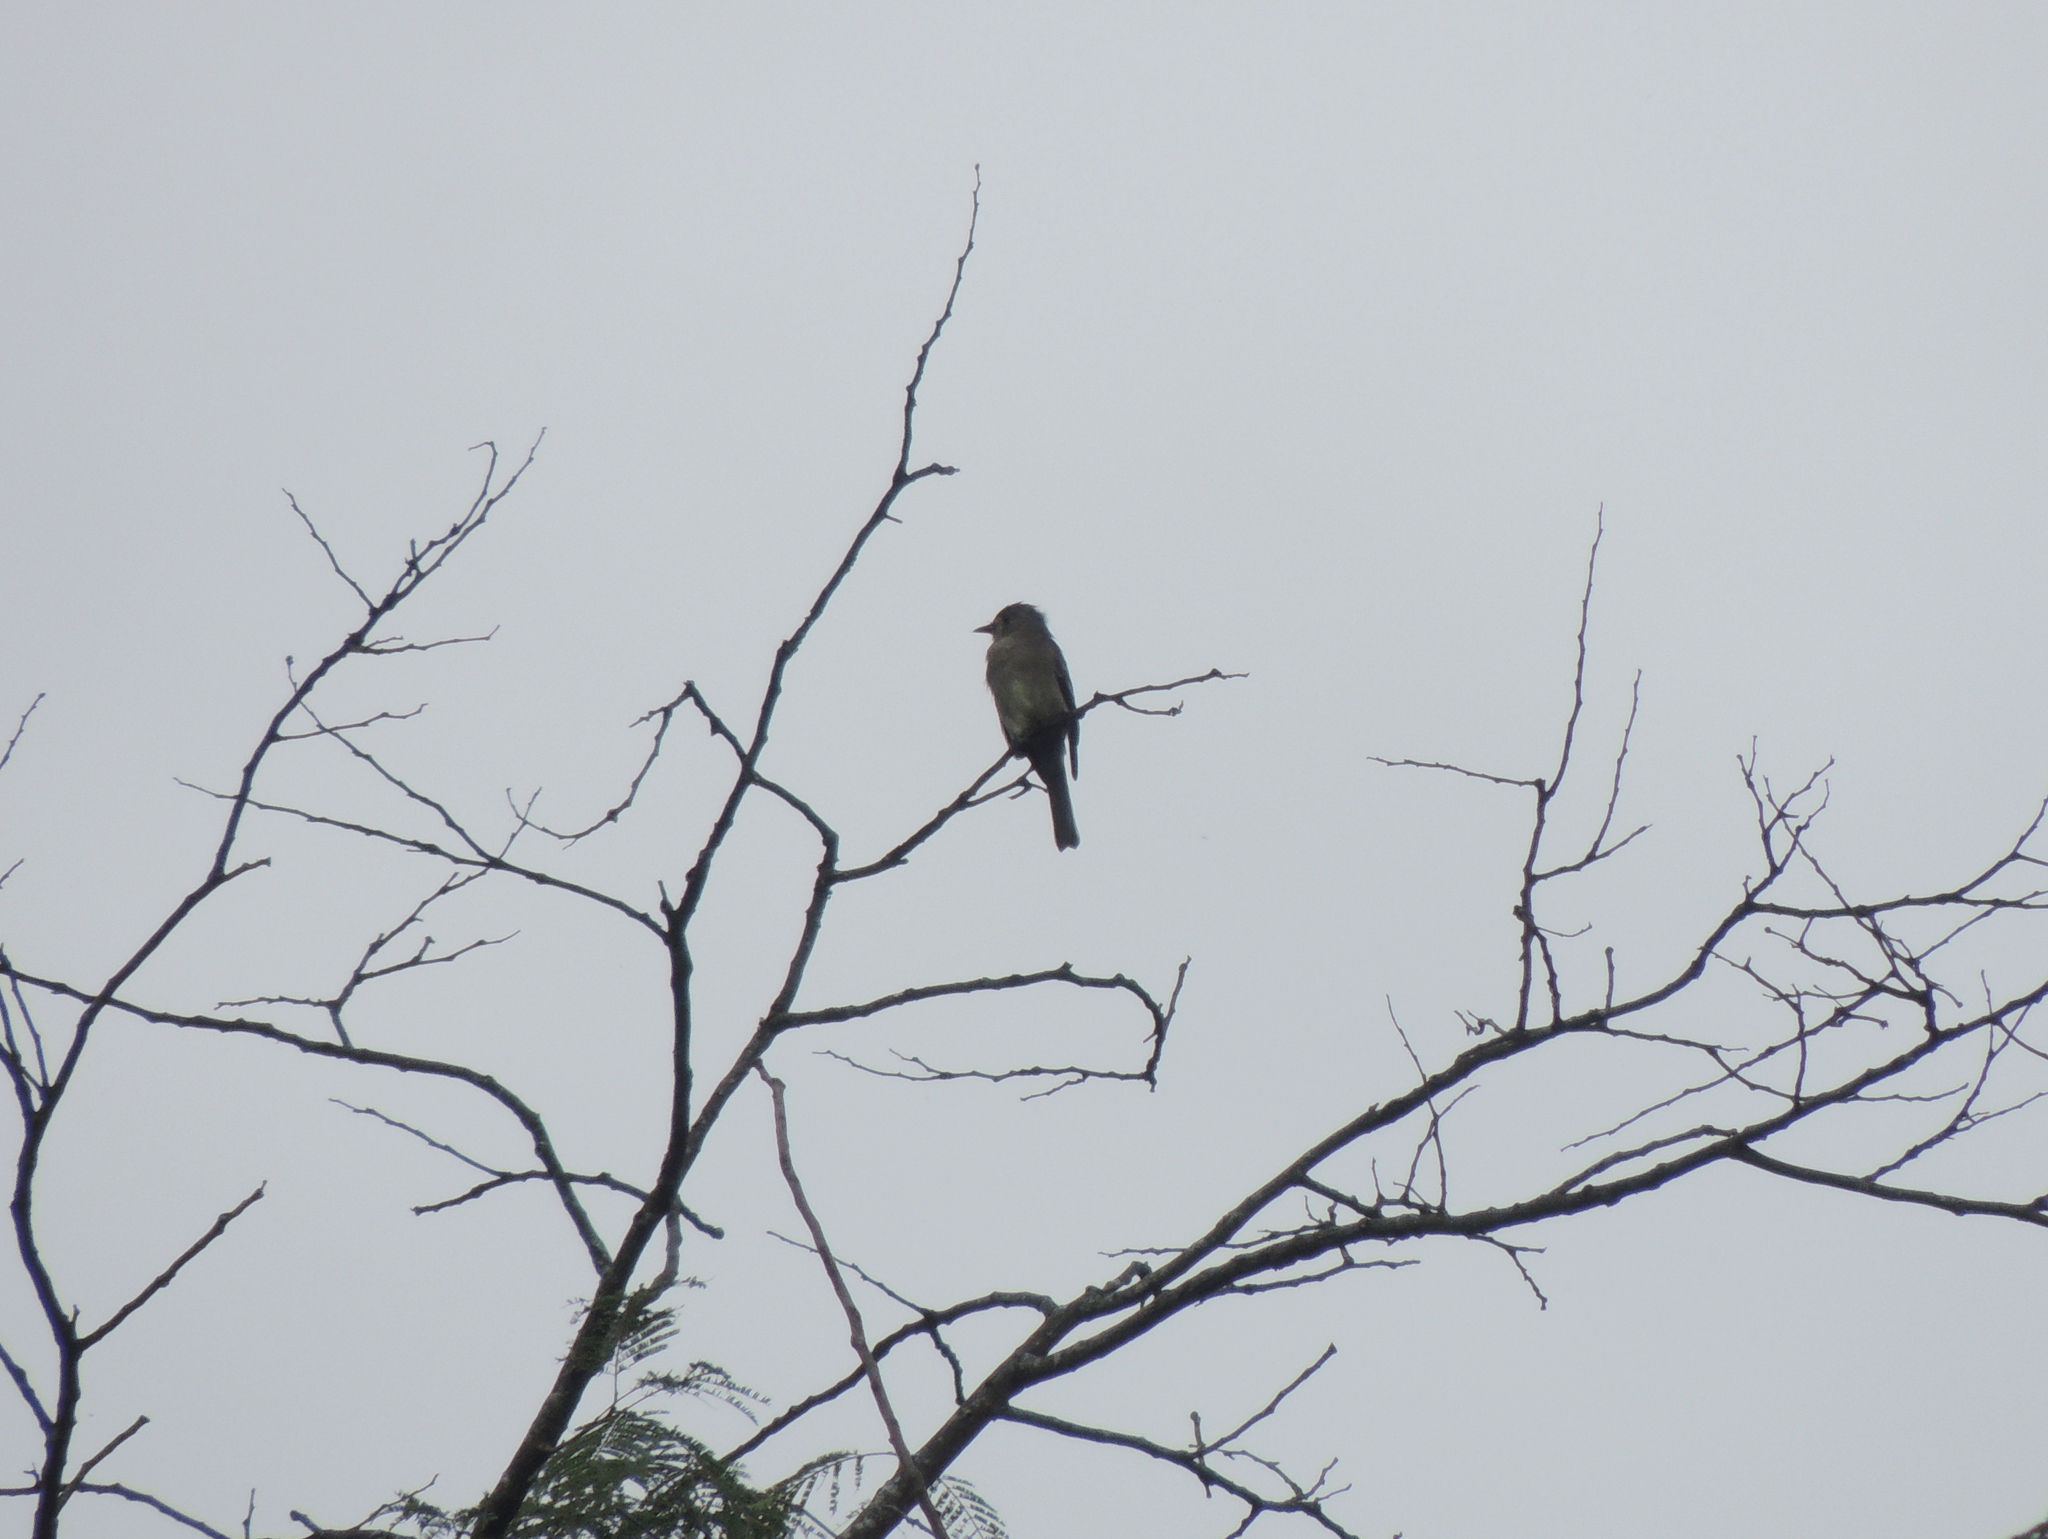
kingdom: Animalia
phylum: Chordata
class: Aves
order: Passeriformes
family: Tyrannidae
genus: Contopus
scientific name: Contopus fumigatus
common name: Smoke-colored pewee
